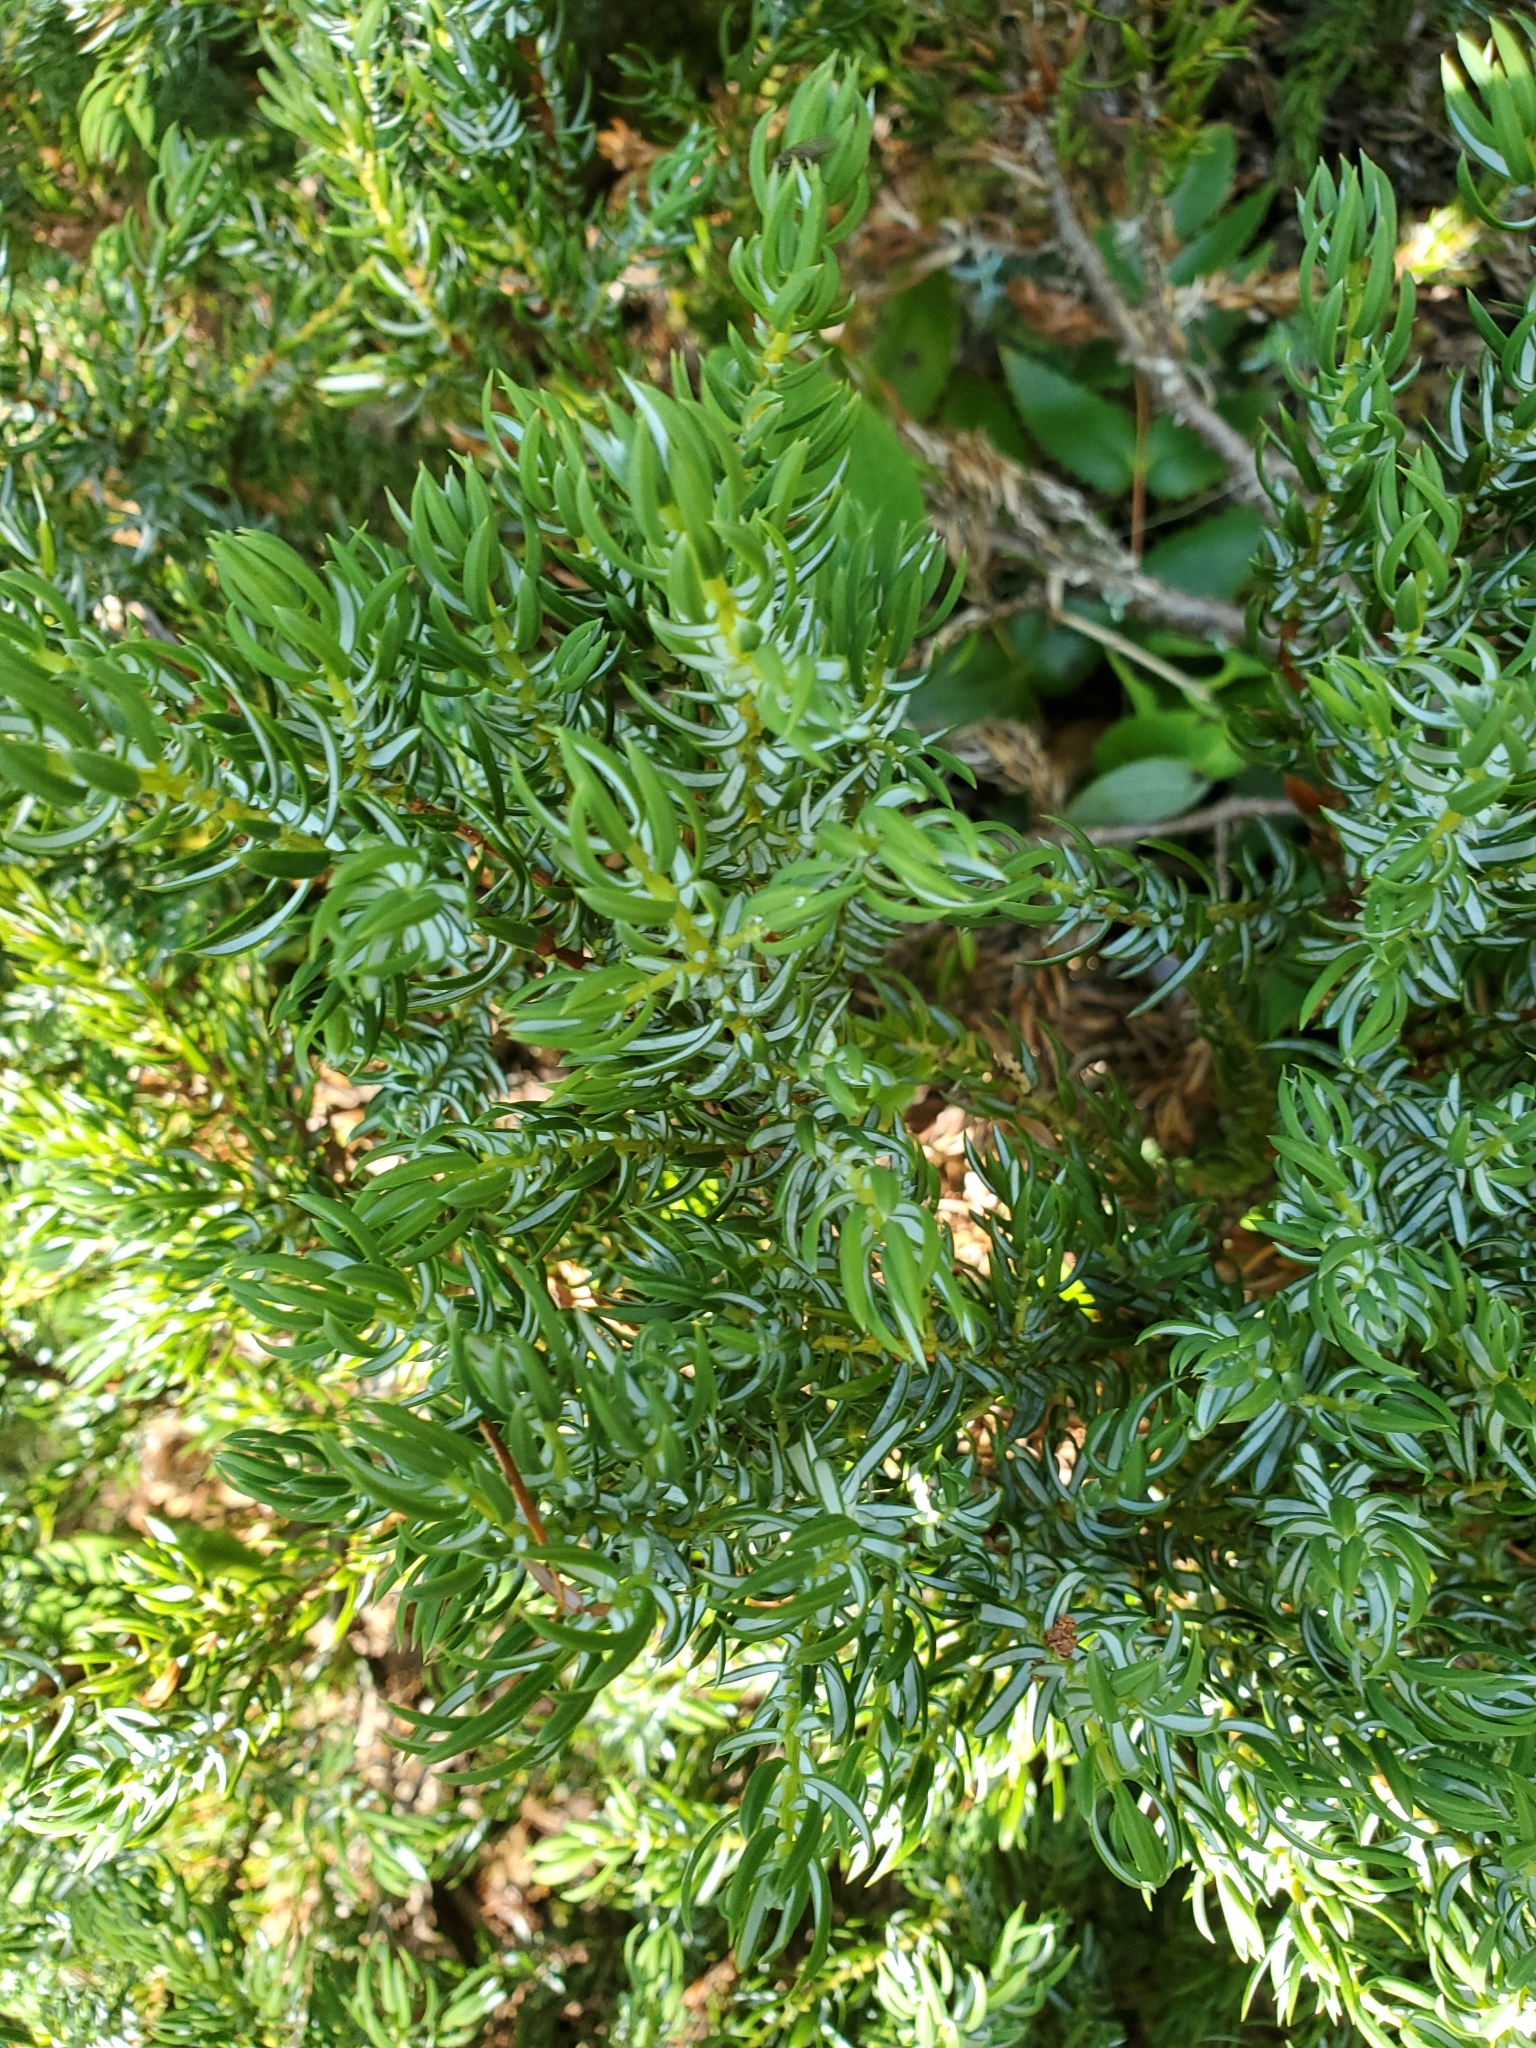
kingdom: Plantae
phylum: Tracheophyta
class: Pinopsida
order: Pinales
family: Cupressaceae
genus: Juniperus
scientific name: Juniperus communis
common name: Common juniper
